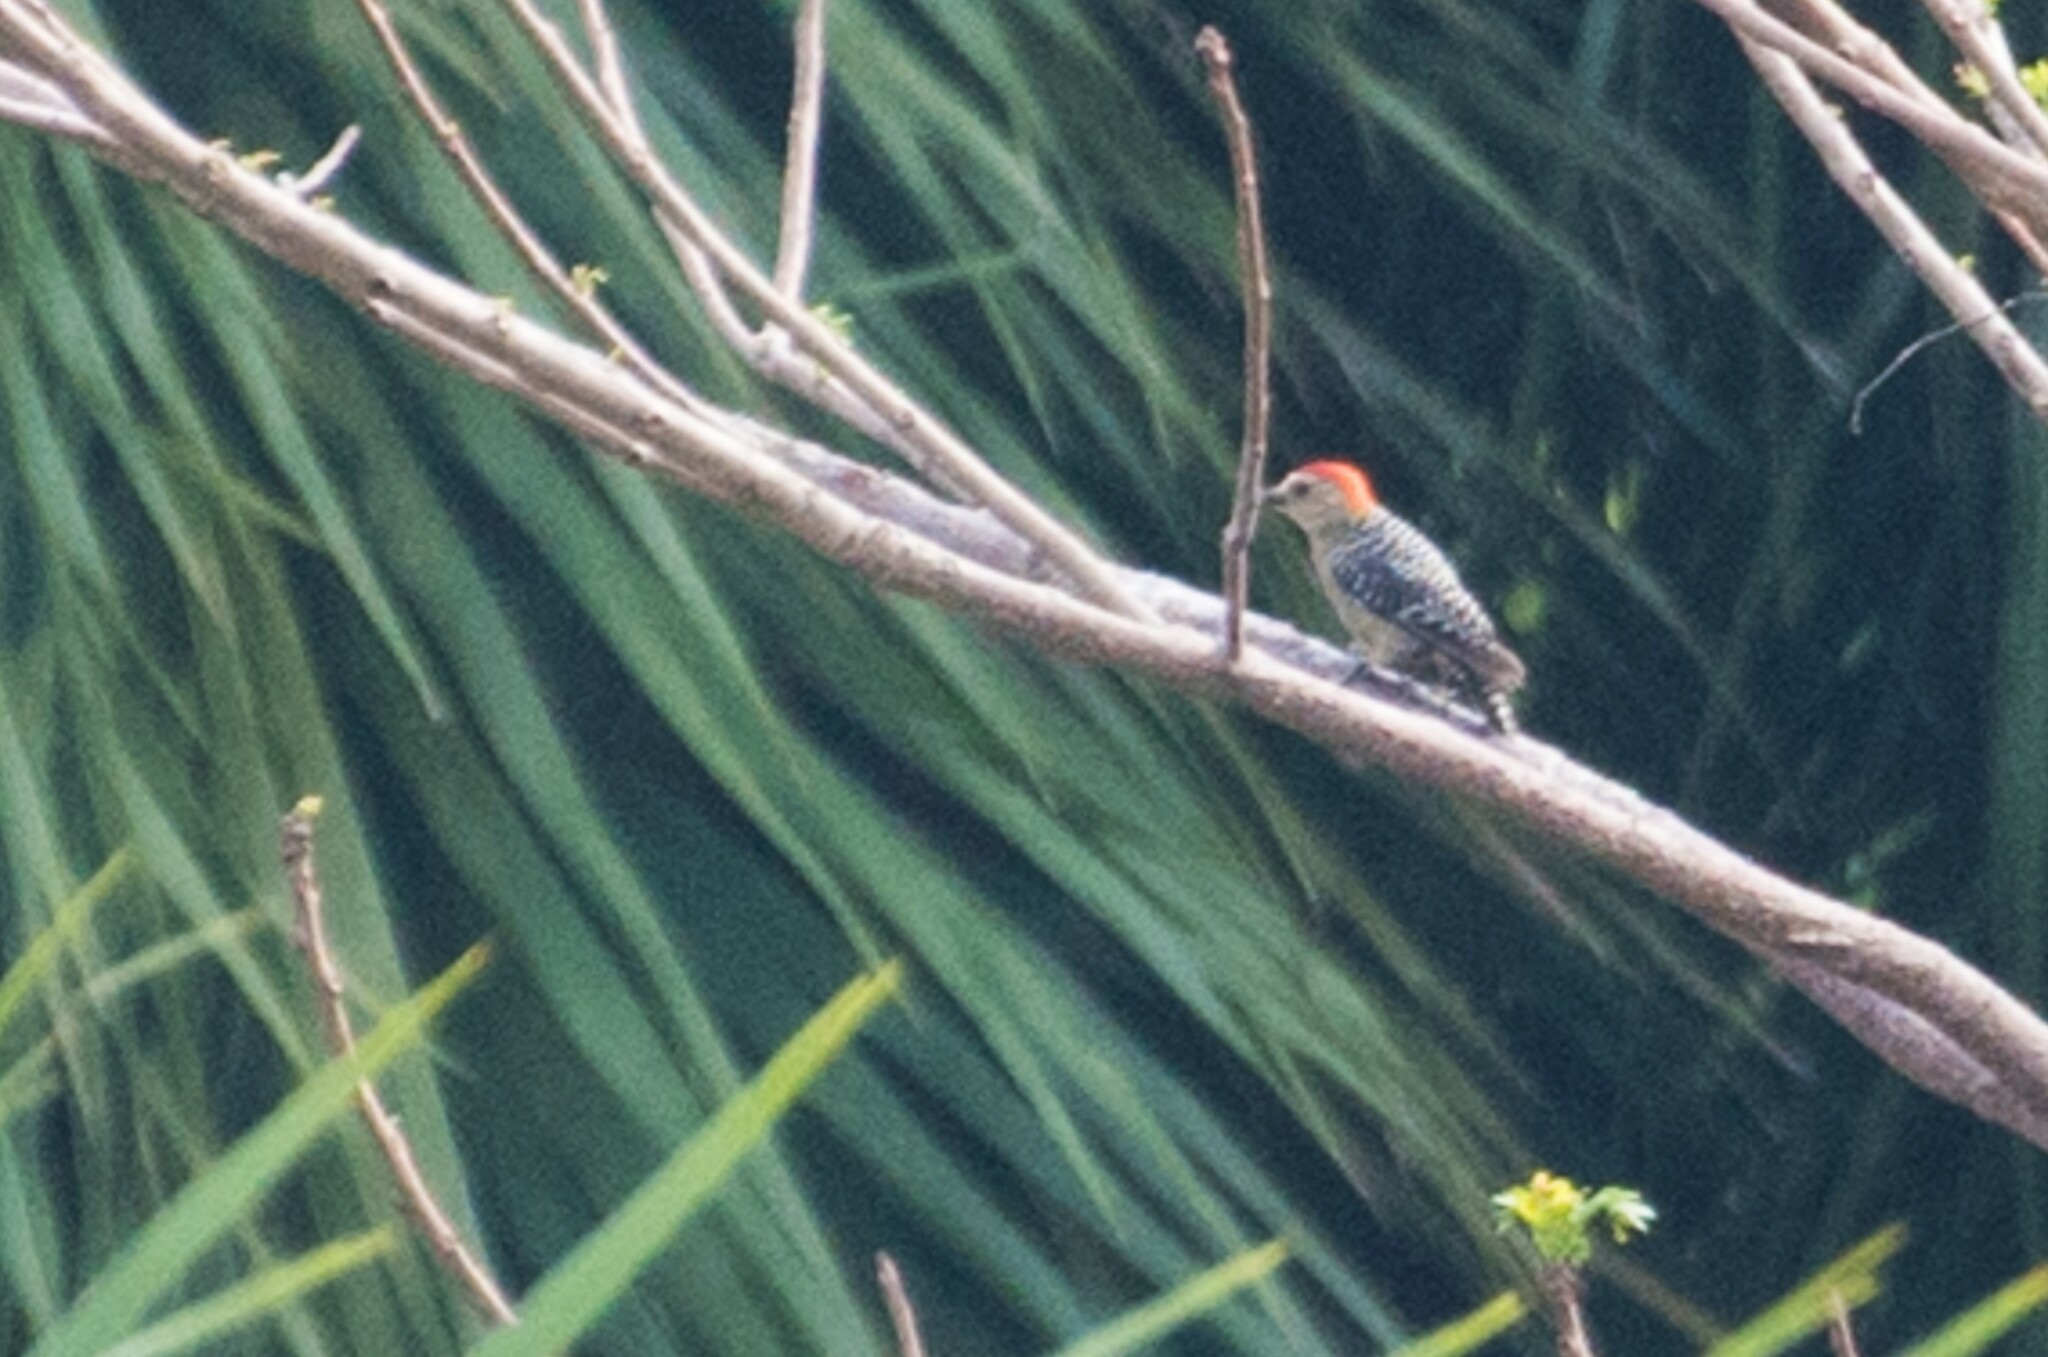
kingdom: Animalia
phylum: Chordata
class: Aves
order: Piciformes
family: Picidae
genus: Melanerpes
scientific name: Melanerpes rubricapillus
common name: Red-crowned woodpecker
